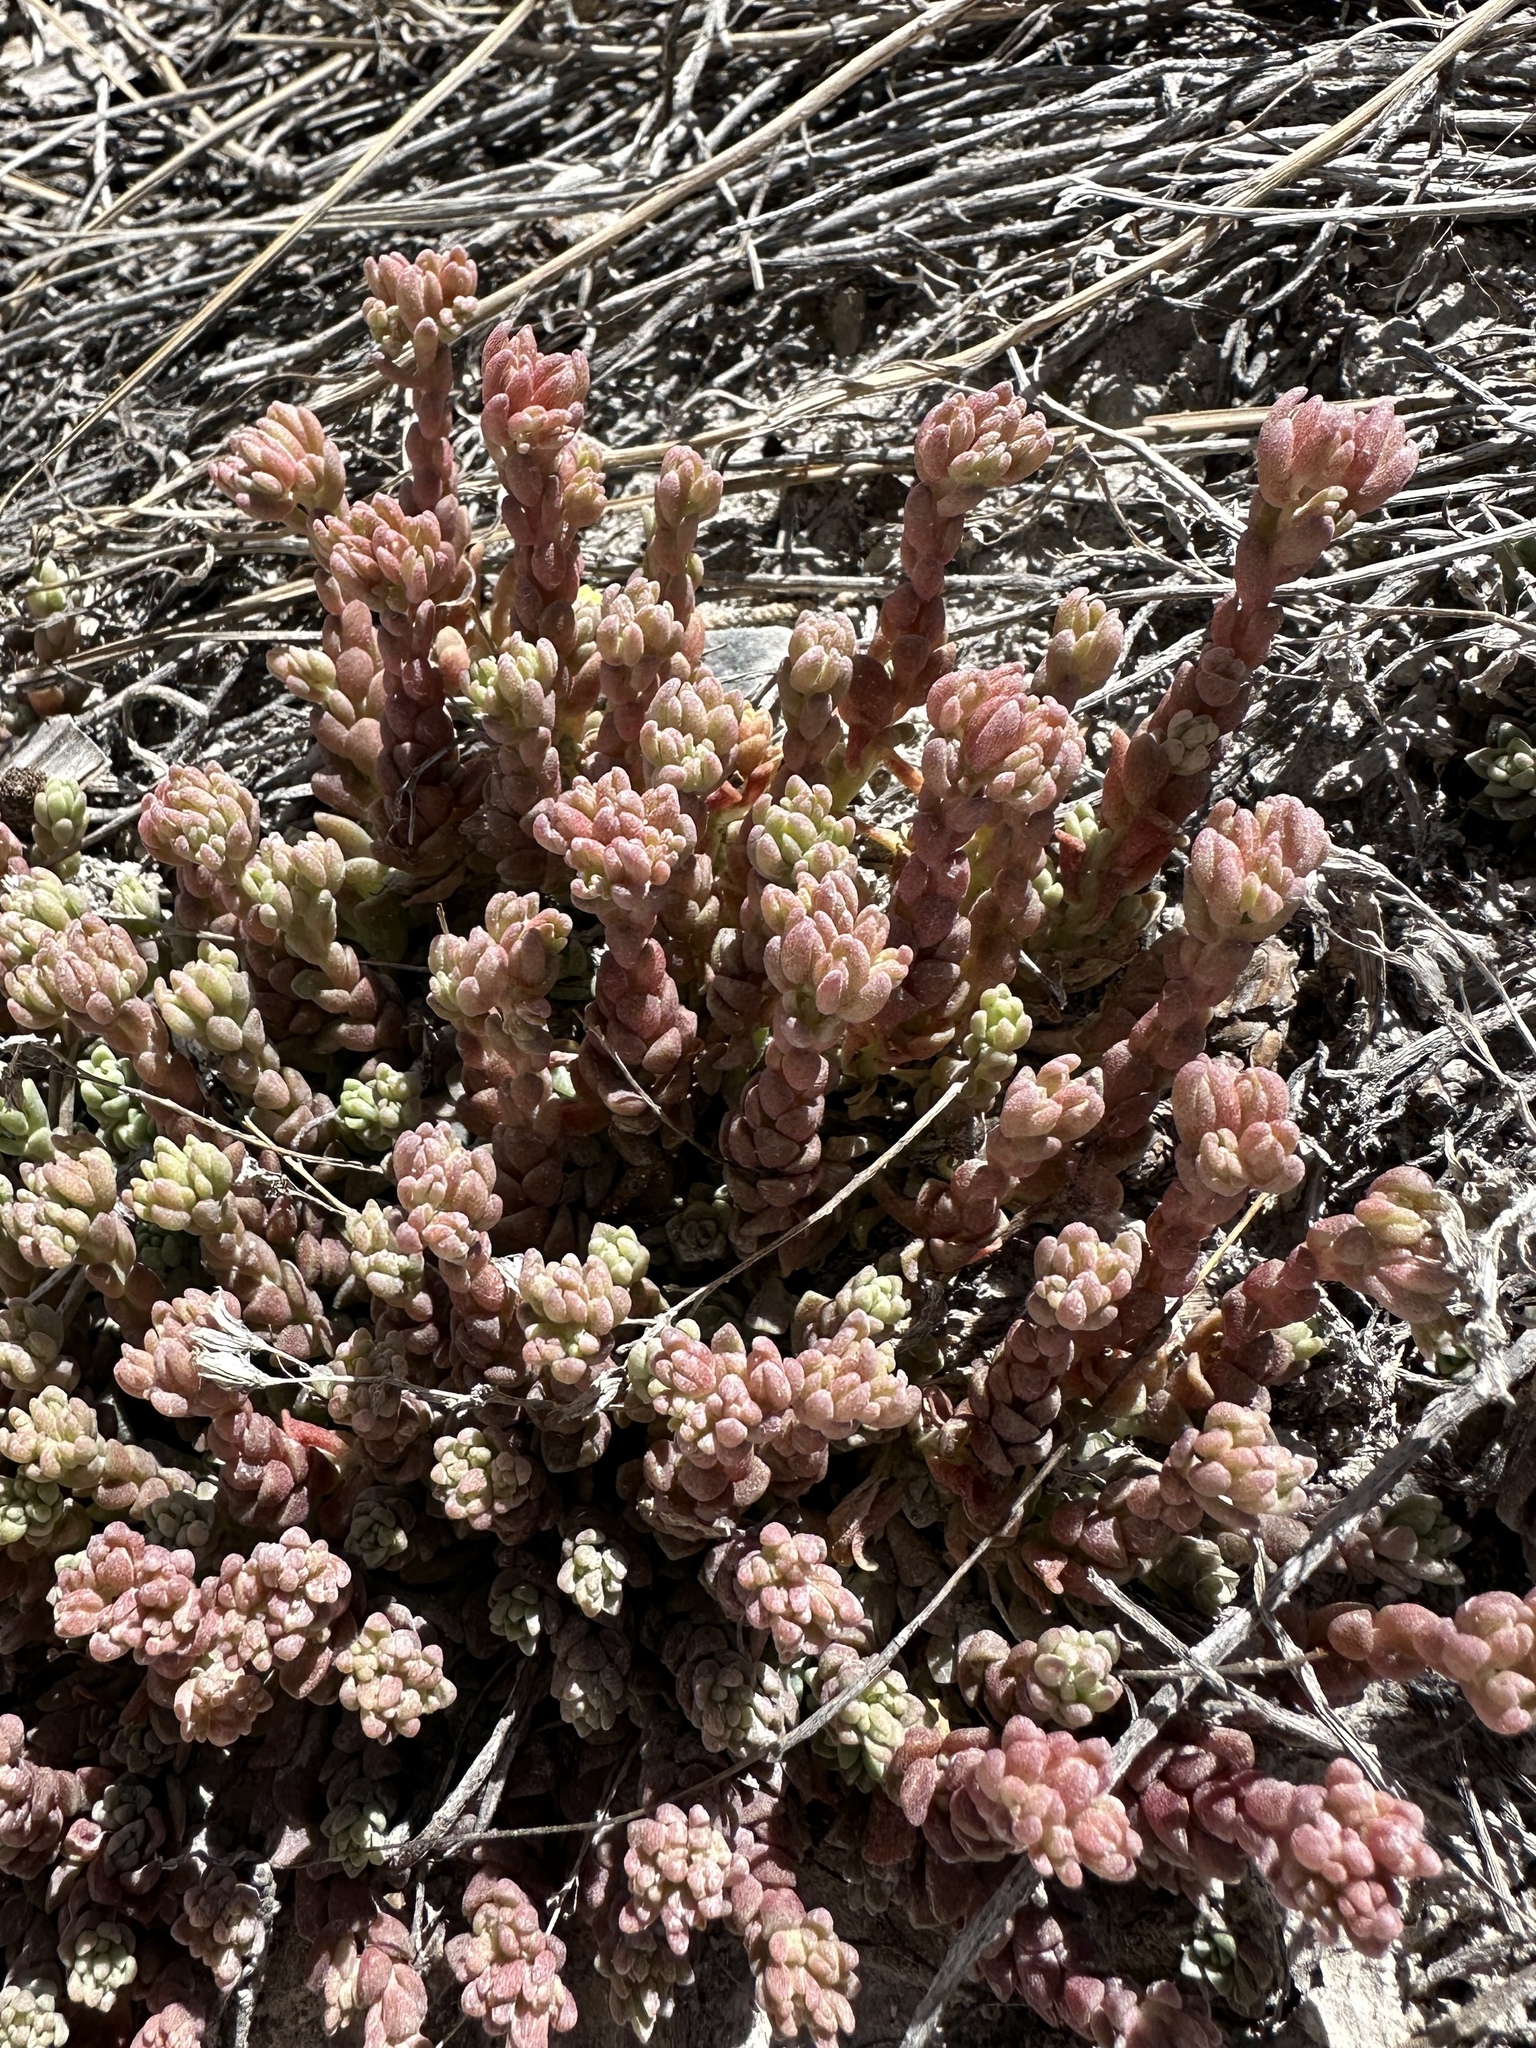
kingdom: Plantae
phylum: Tracheophyta
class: Magnoliopsida
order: Saxifragales
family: Crassulaceae
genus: Sedum
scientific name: Sedum niveum
